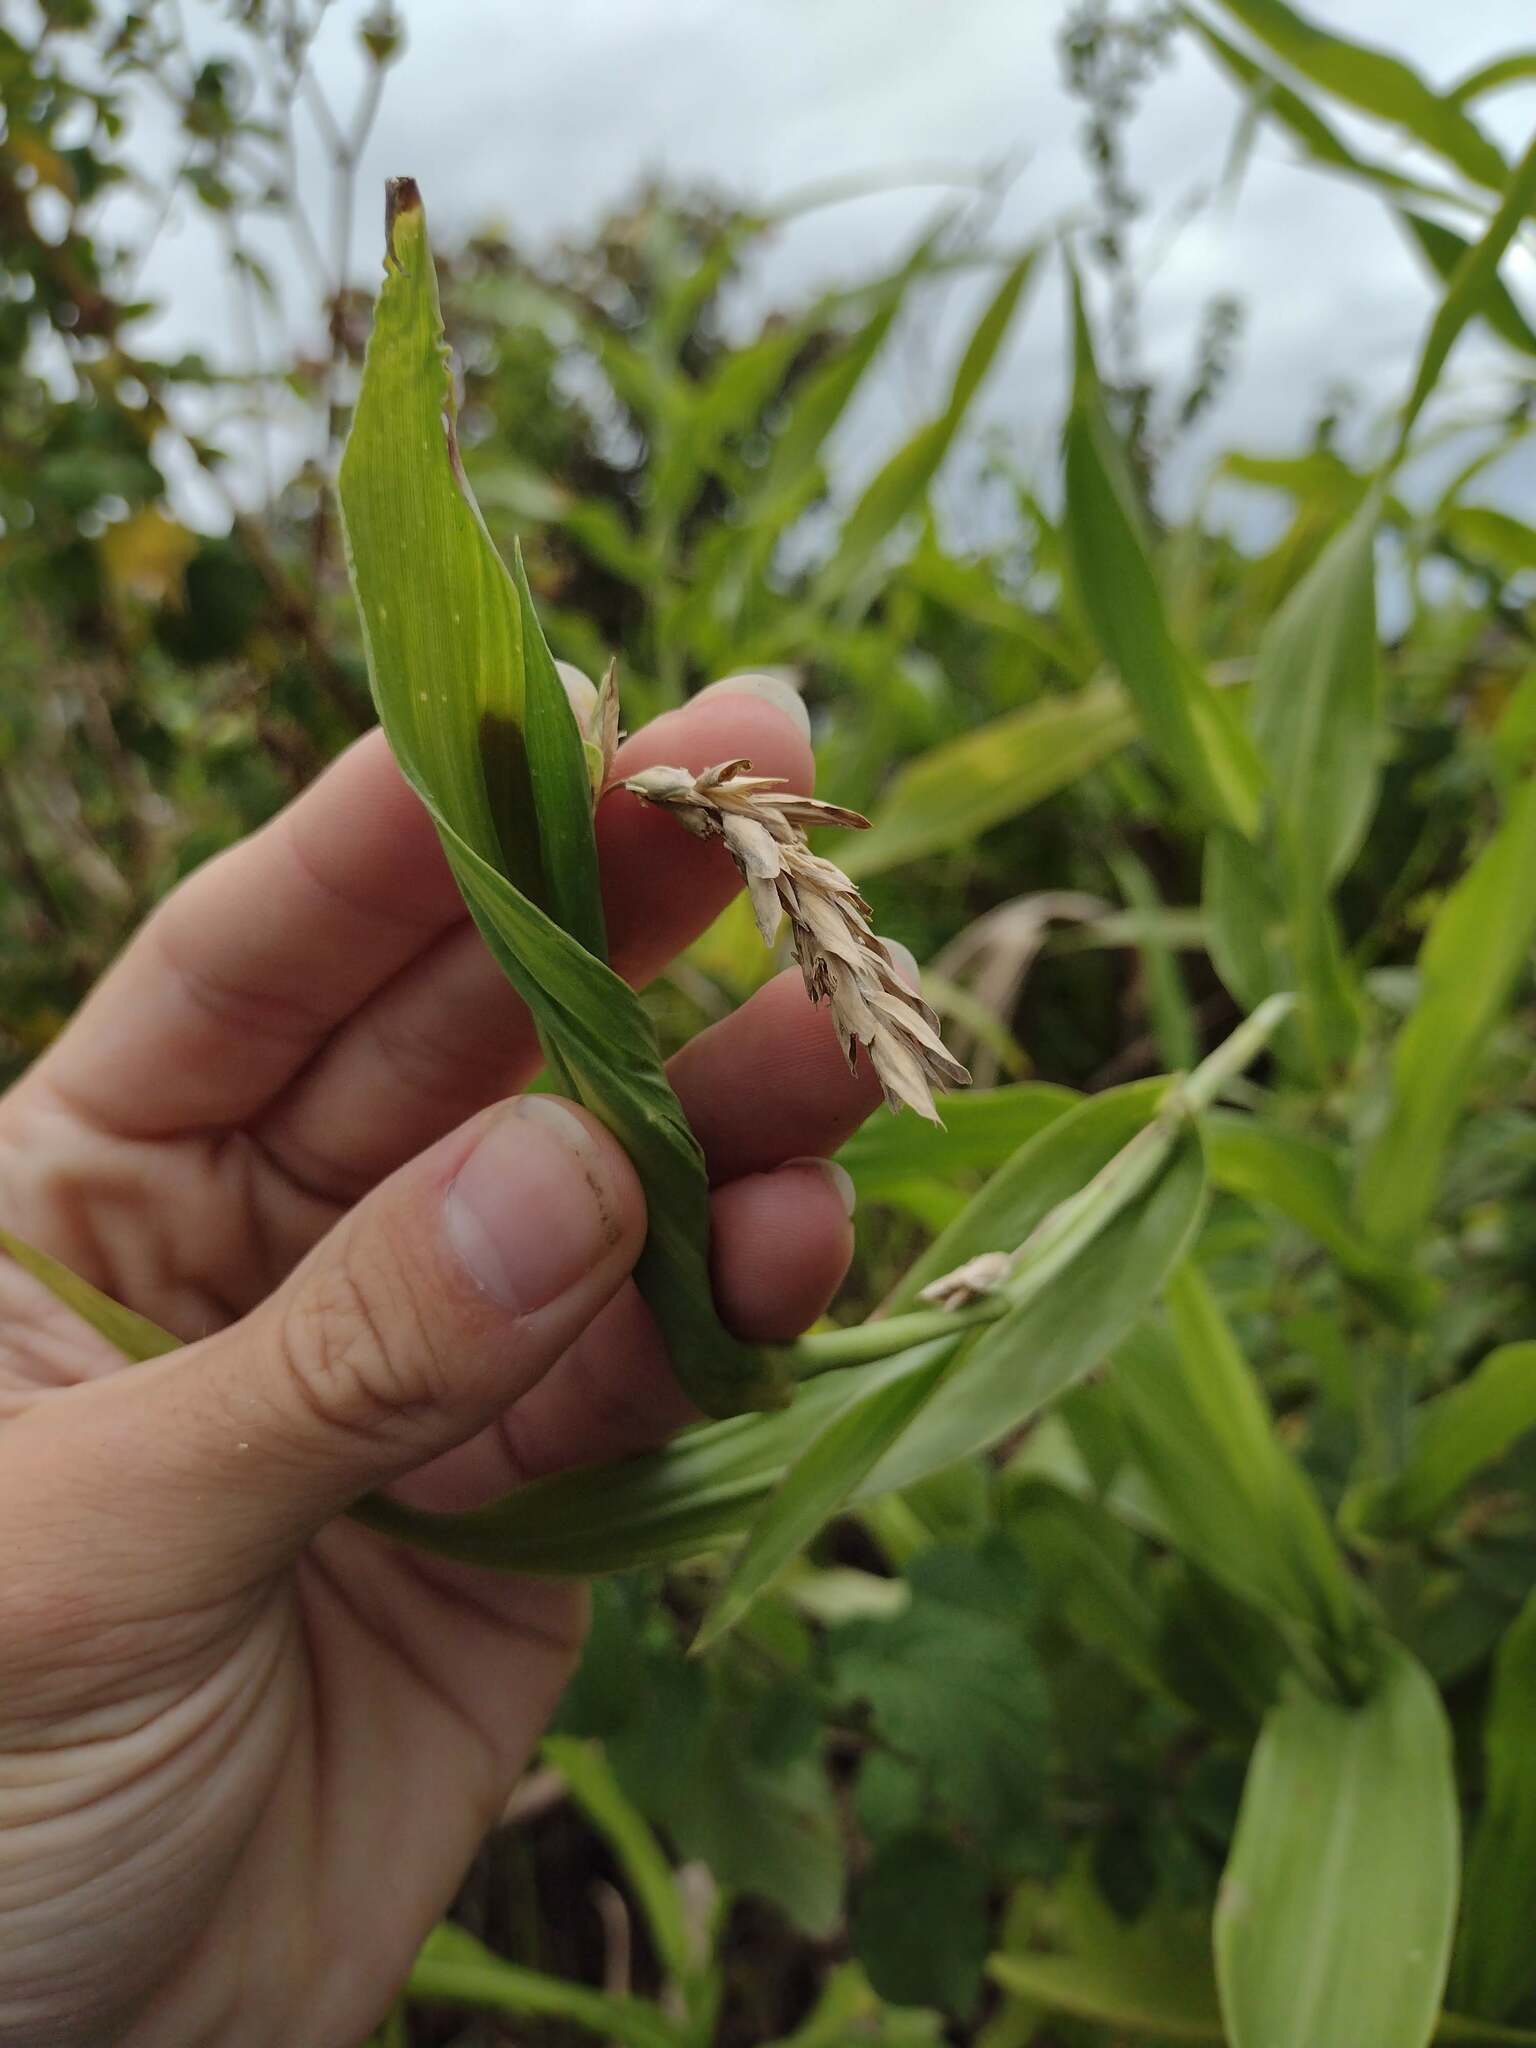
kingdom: Plantae
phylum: Tracheophyta
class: Liliopsida
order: Poales
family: Poaceae
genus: Coix
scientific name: Coix lacryma-jobi
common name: Job's tears
